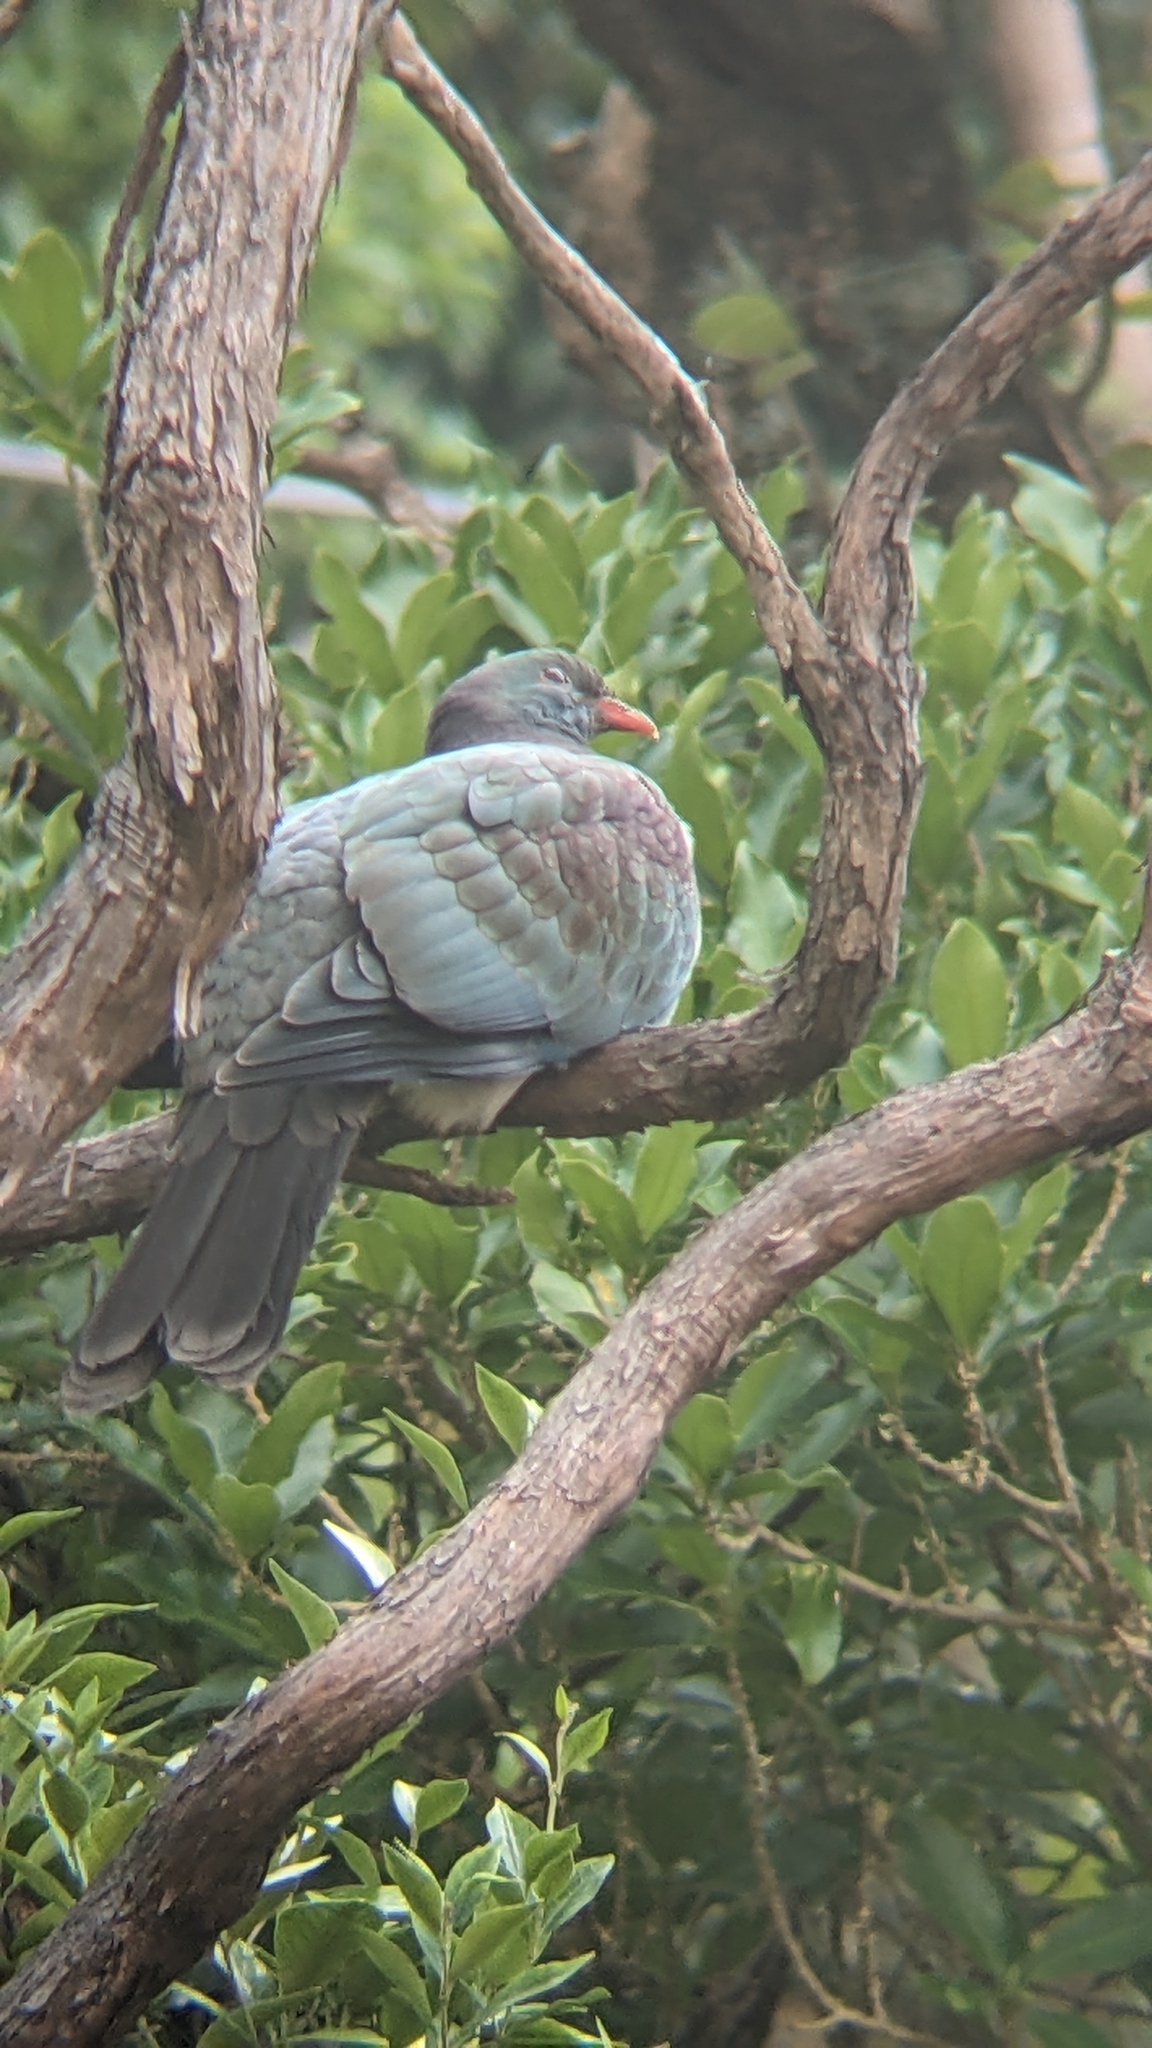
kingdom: Animalia
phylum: Chordata
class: Aves
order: Columbiformes
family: Columbidae
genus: Hemiphaga
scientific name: Hemiphaga novaeseelandiae
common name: New zealand pigeon
